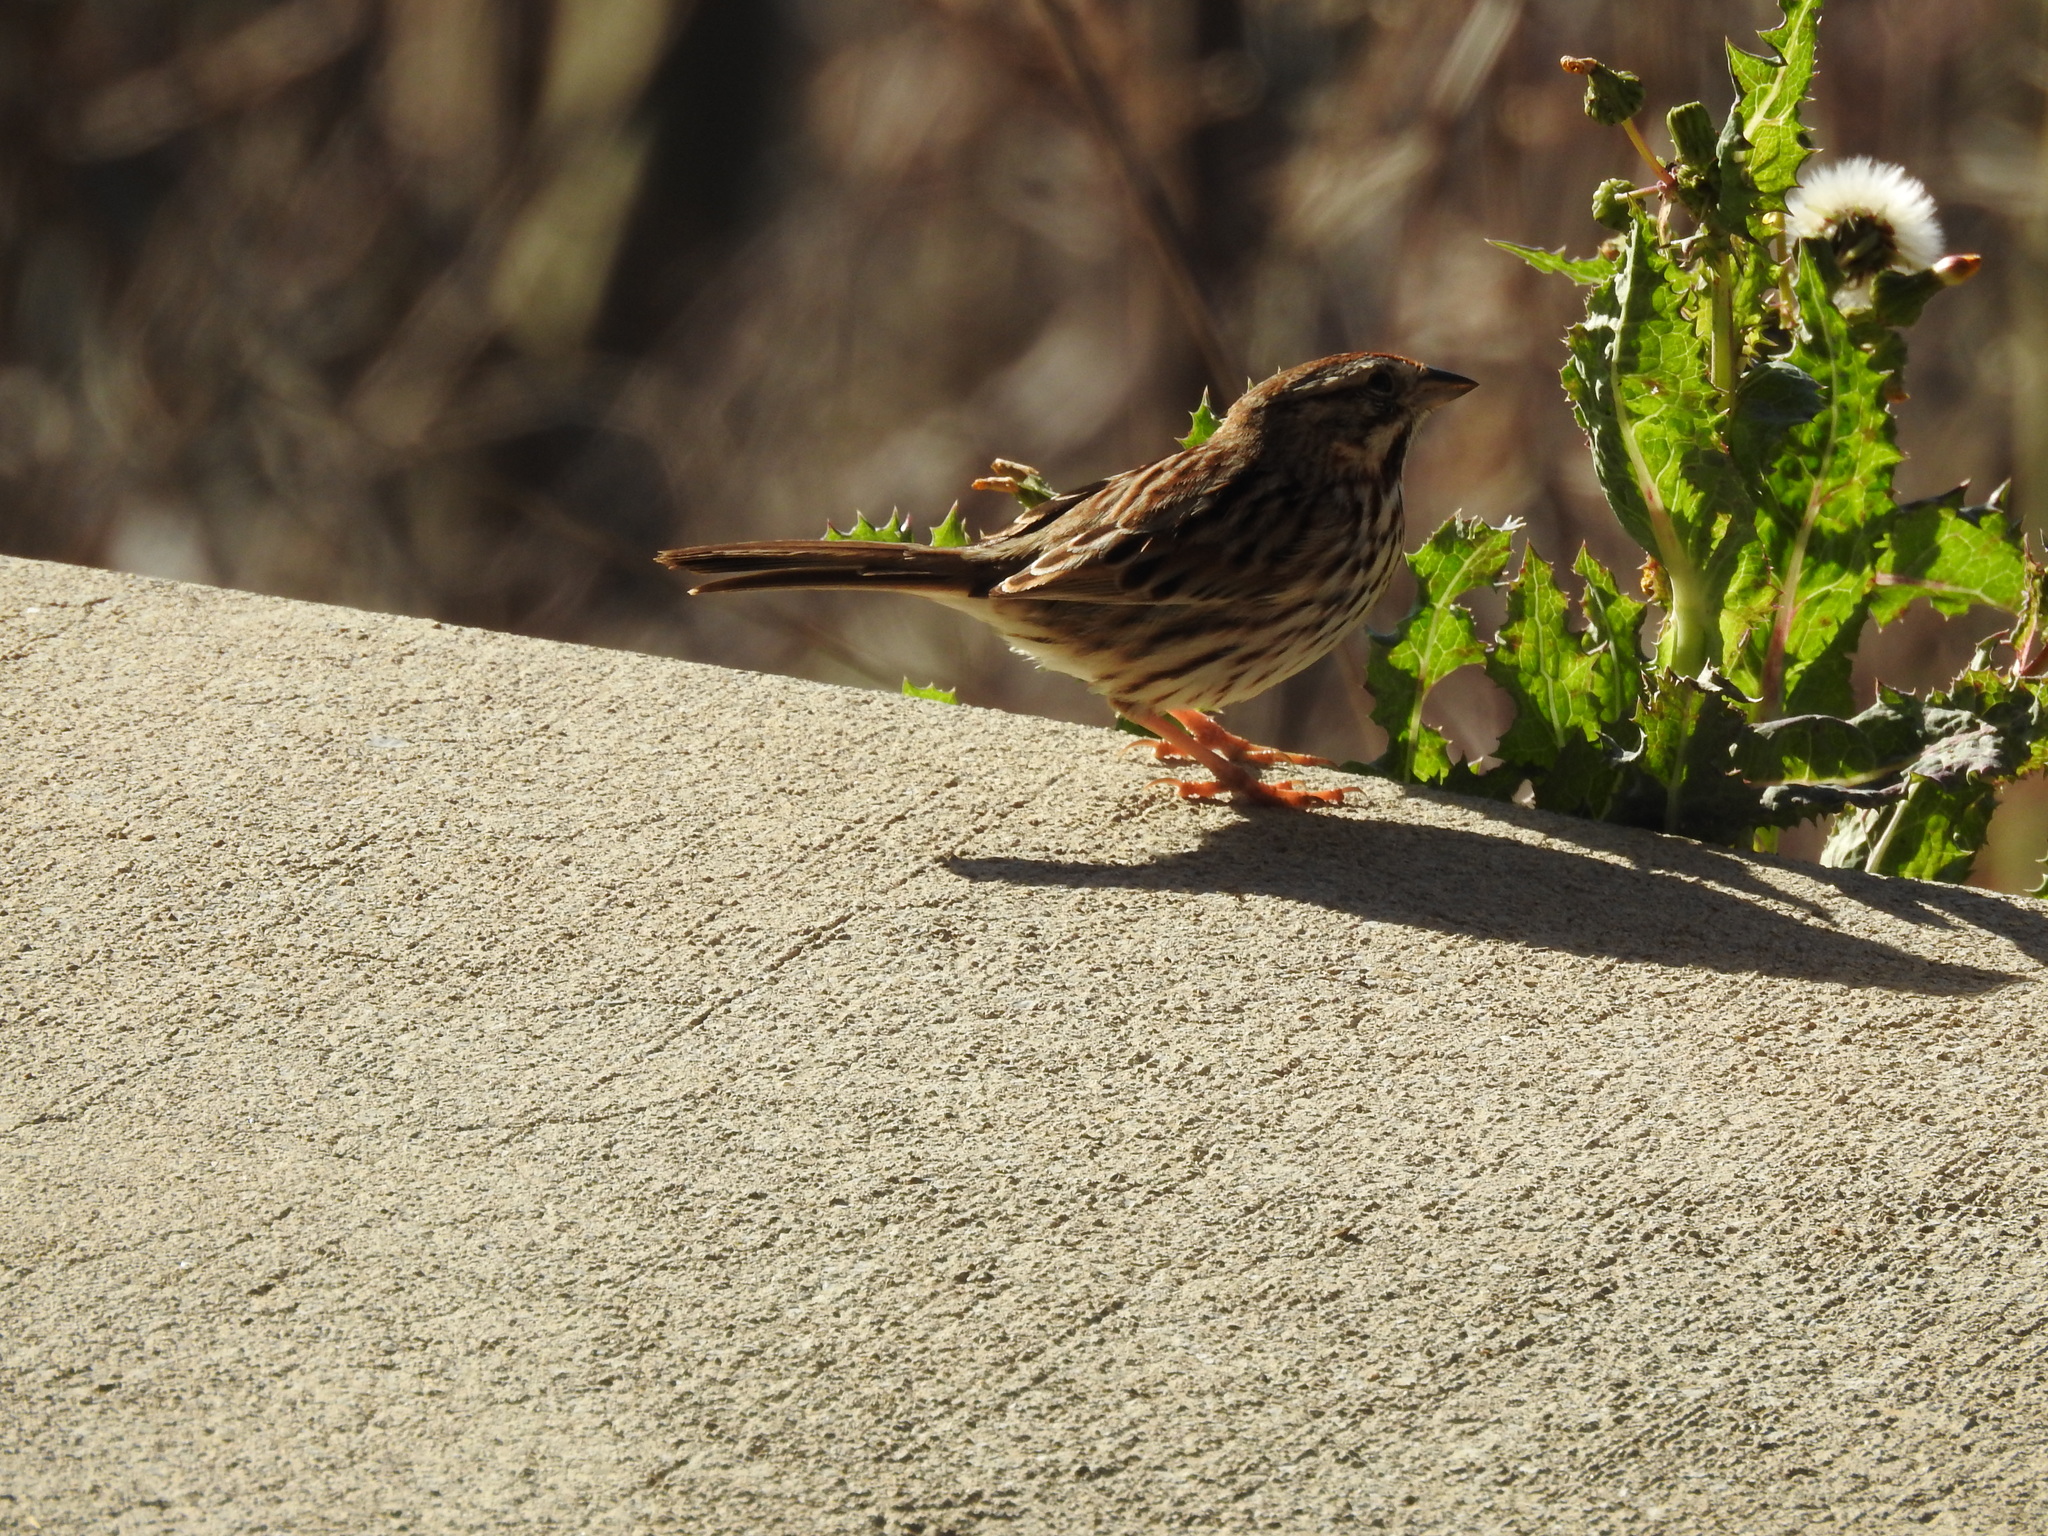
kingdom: Animalia
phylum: Chordata
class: Aves
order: Passeriformes
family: Passerellidae
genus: Melospiza
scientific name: Melospiza melodia
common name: Song sparrow
